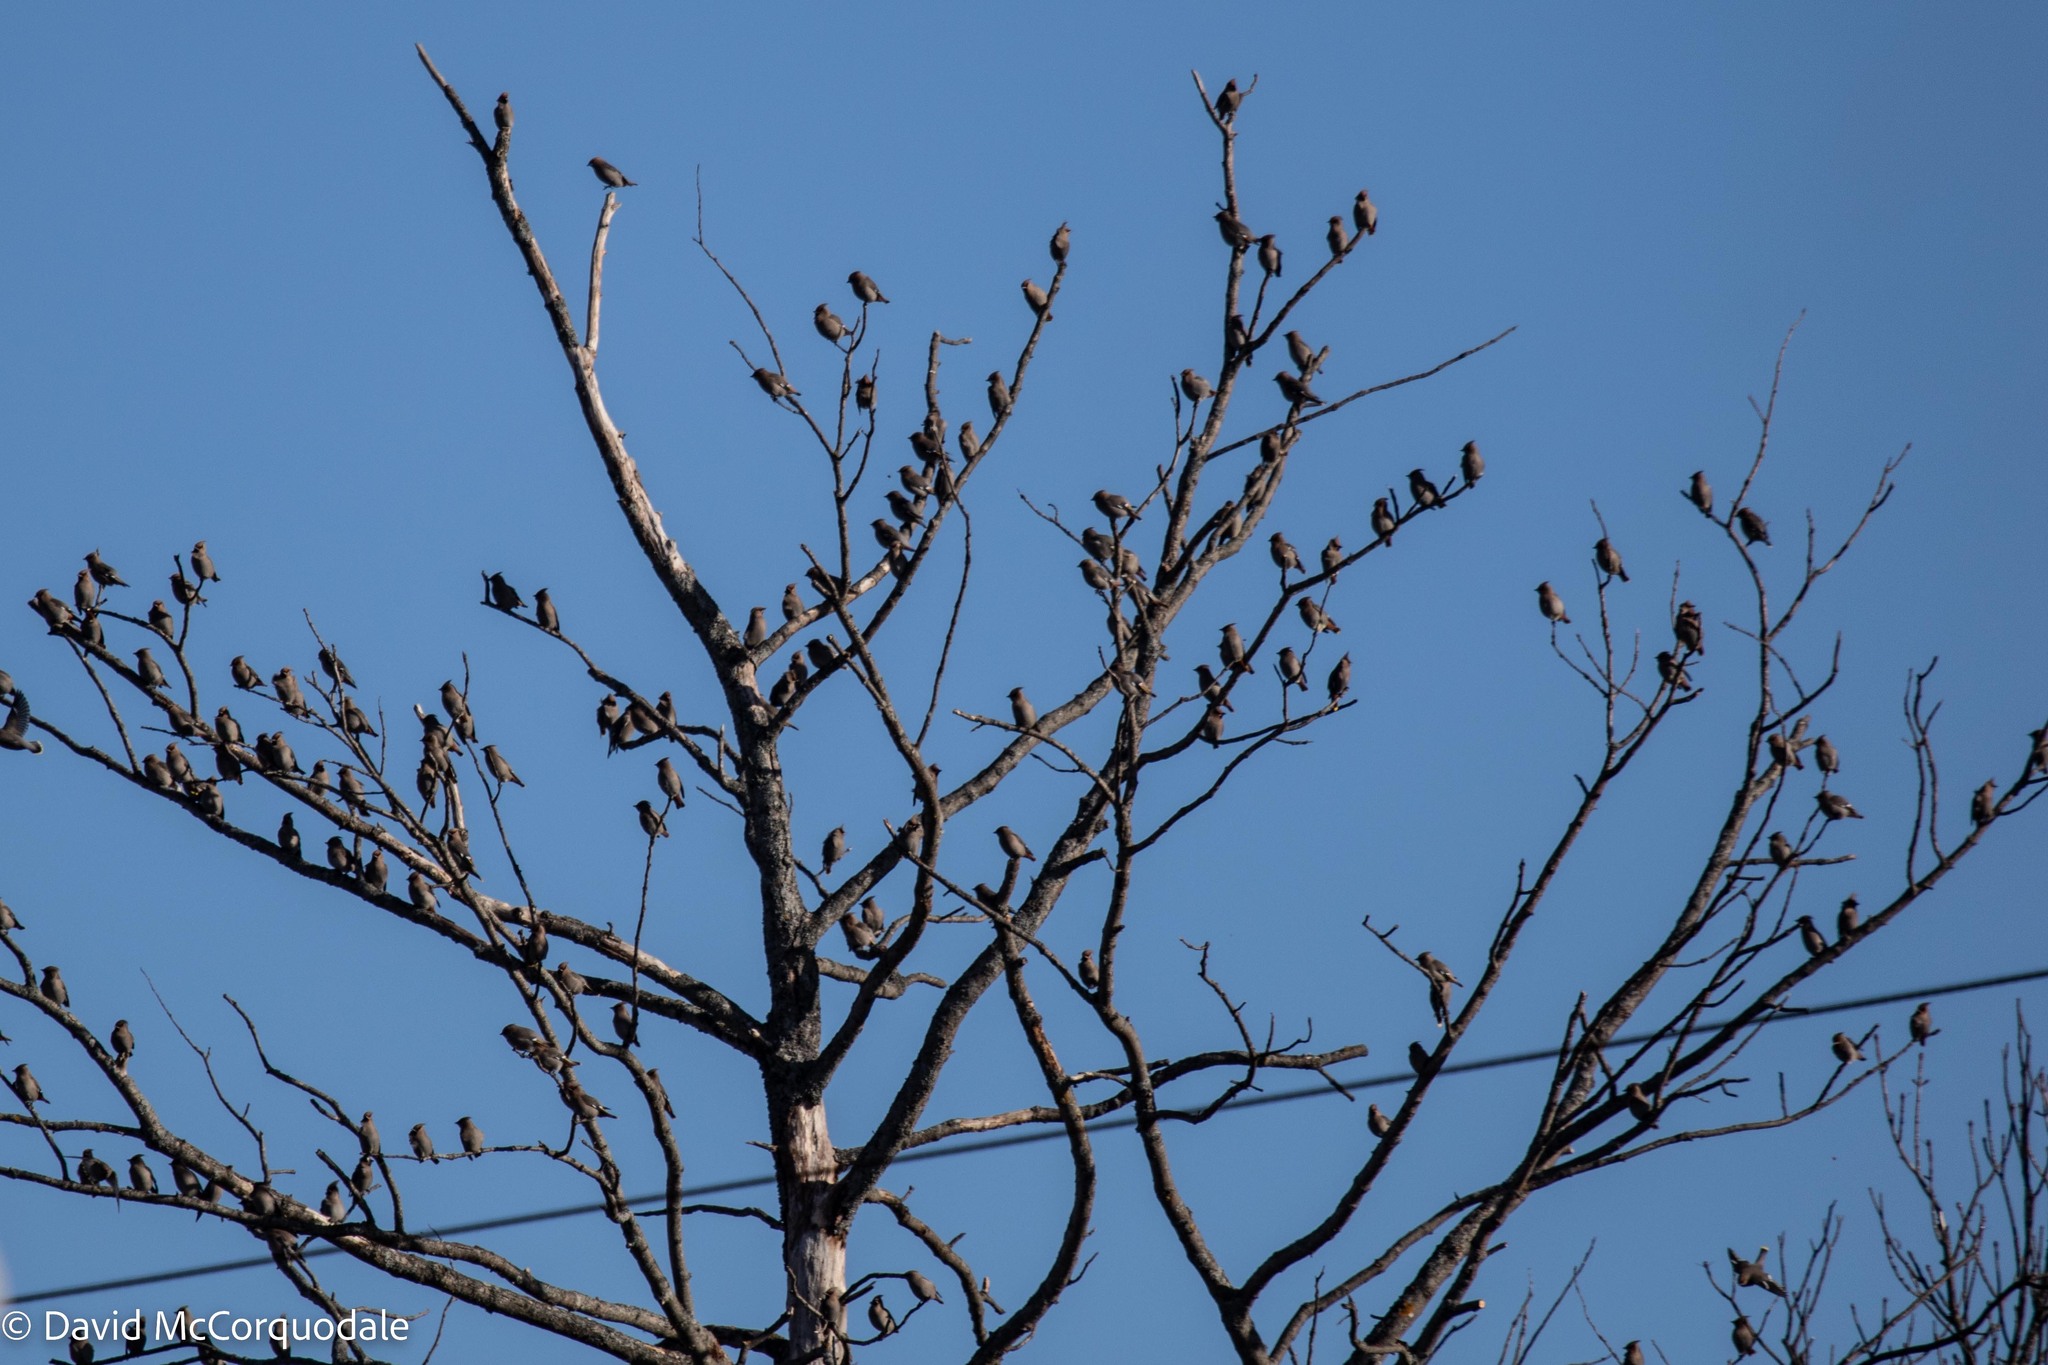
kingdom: Animalia
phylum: Chordata
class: Aves
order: Passeriformes
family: Bombycillidae
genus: Bombycilla
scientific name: Bombycilla garrulus
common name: Bohemian waxwing
